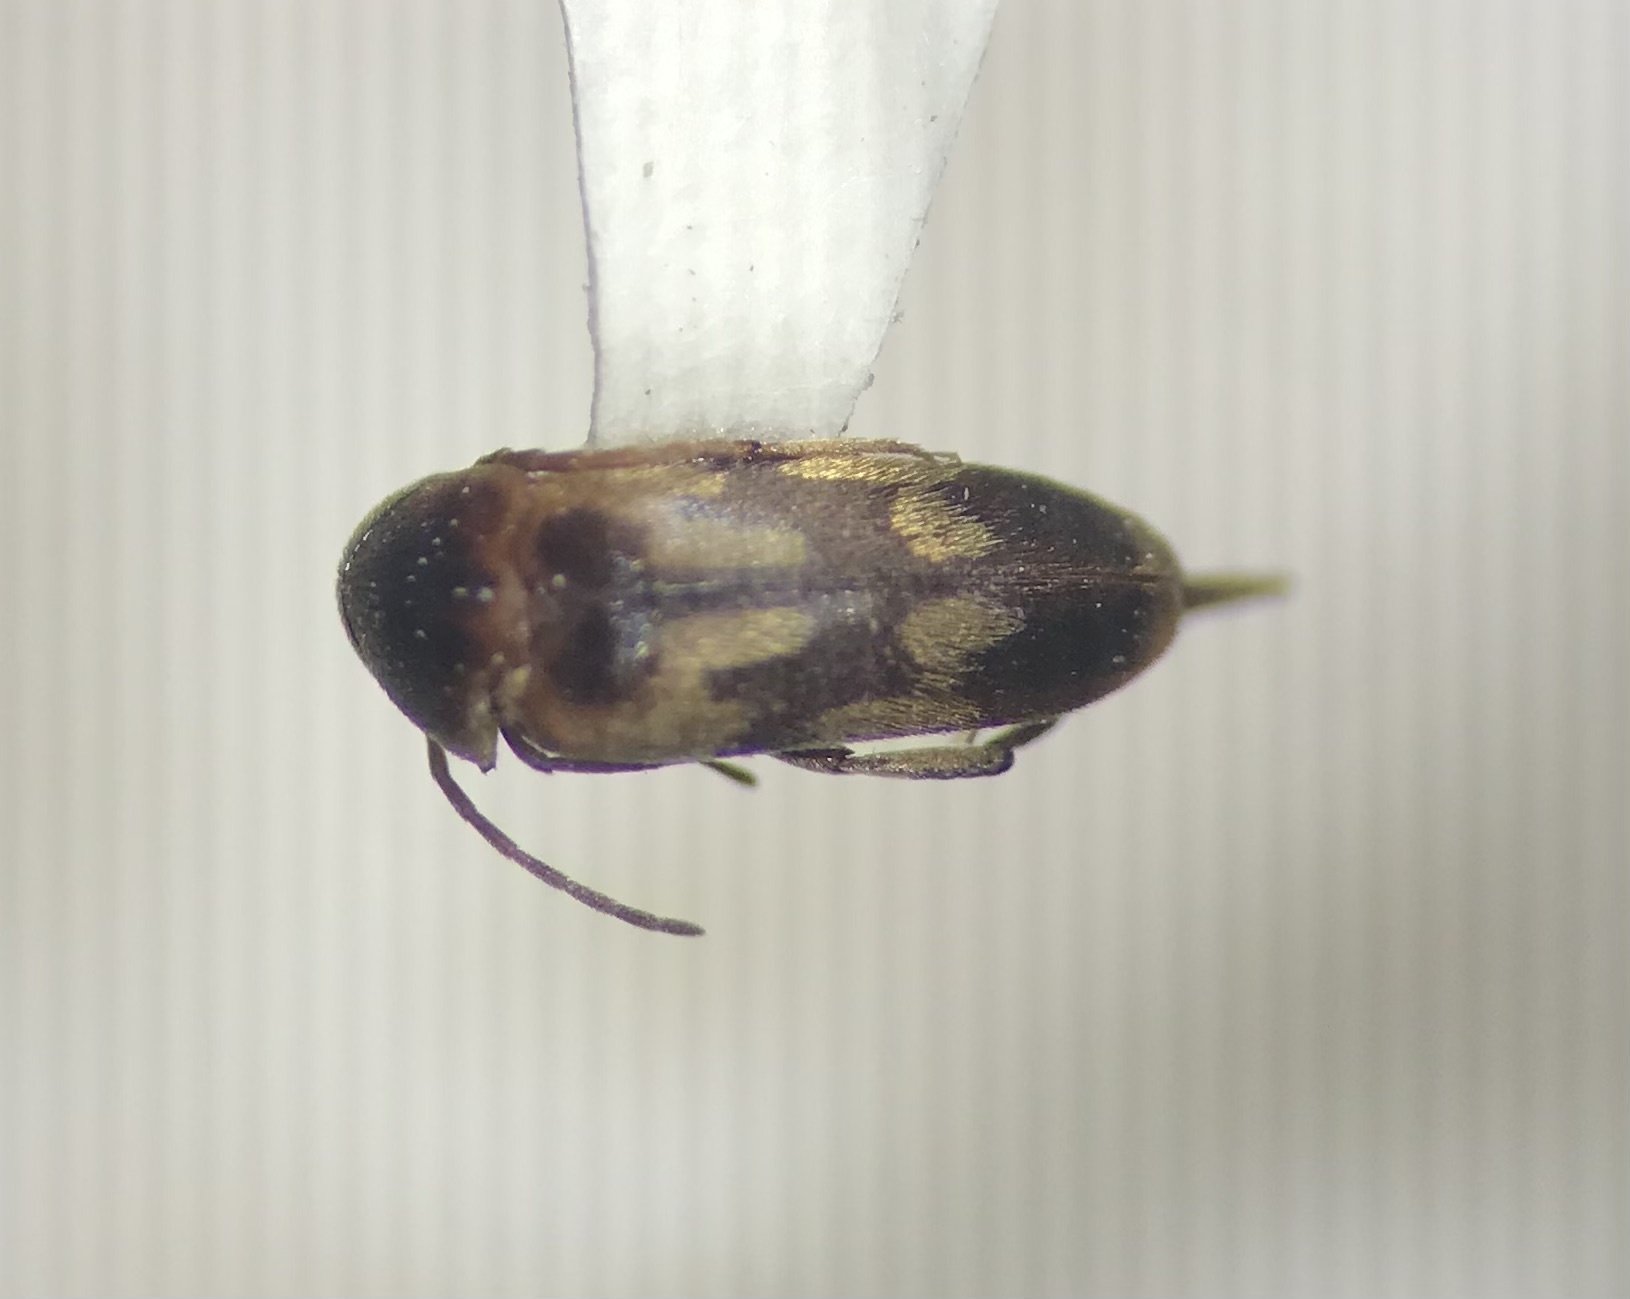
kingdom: Animalia
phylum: Arthropoda
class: Insecta
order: Coleoptera
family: Mordellidae
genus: Falsomordellistena
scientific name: Falsomordellistena bihamata
